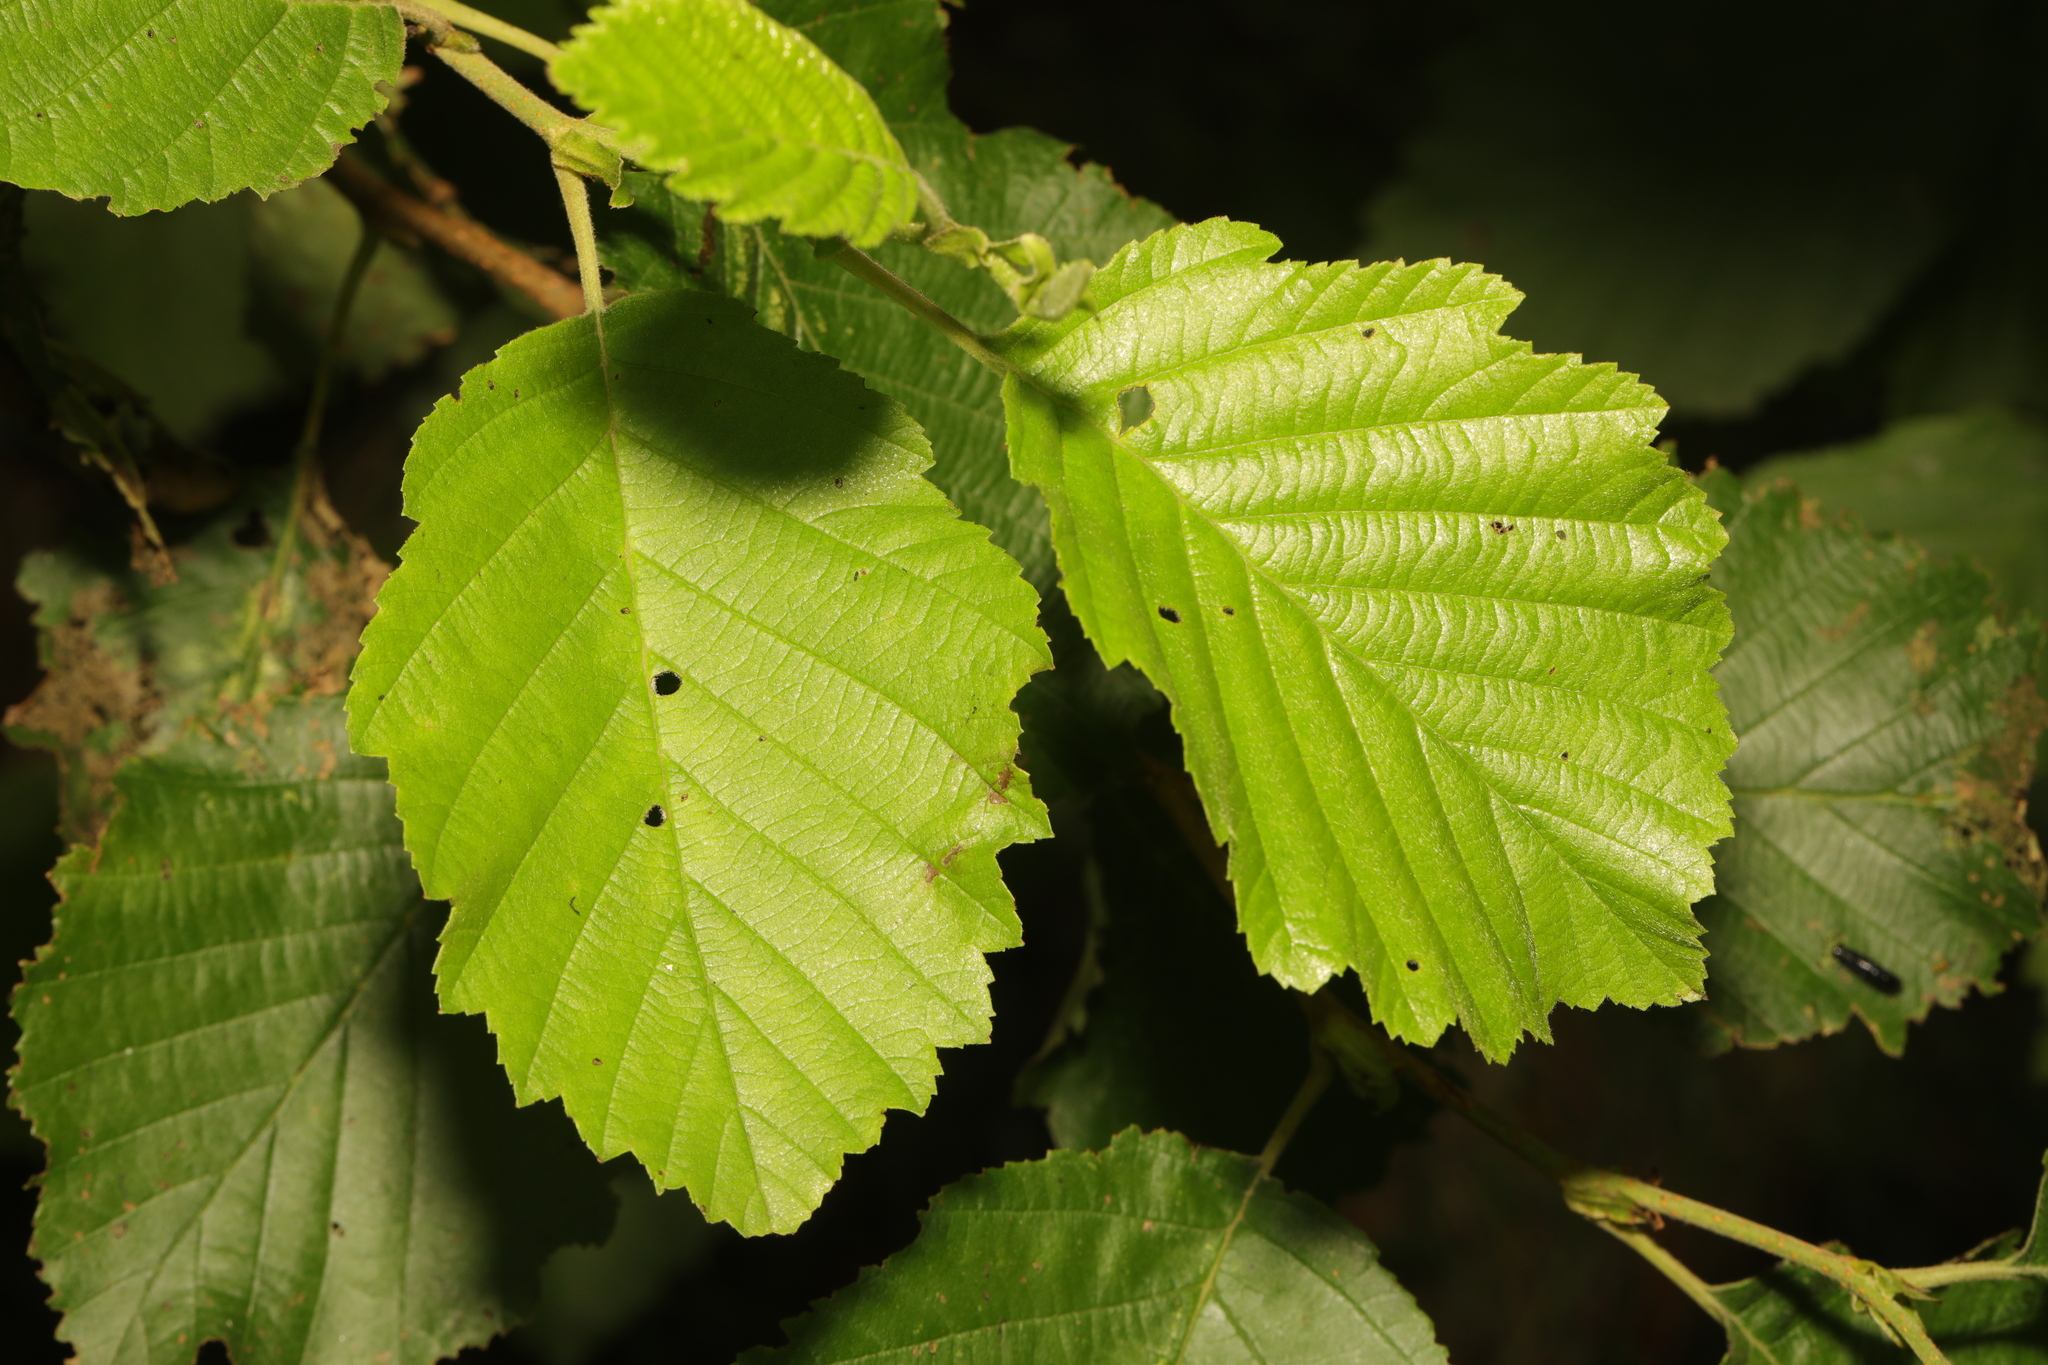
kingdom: Plantae
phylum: Tracheophyta
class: Magnoliopsida
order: Fagales
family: Betulaceae
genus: Alnus
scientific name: Alnus incana
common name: Grey alder
